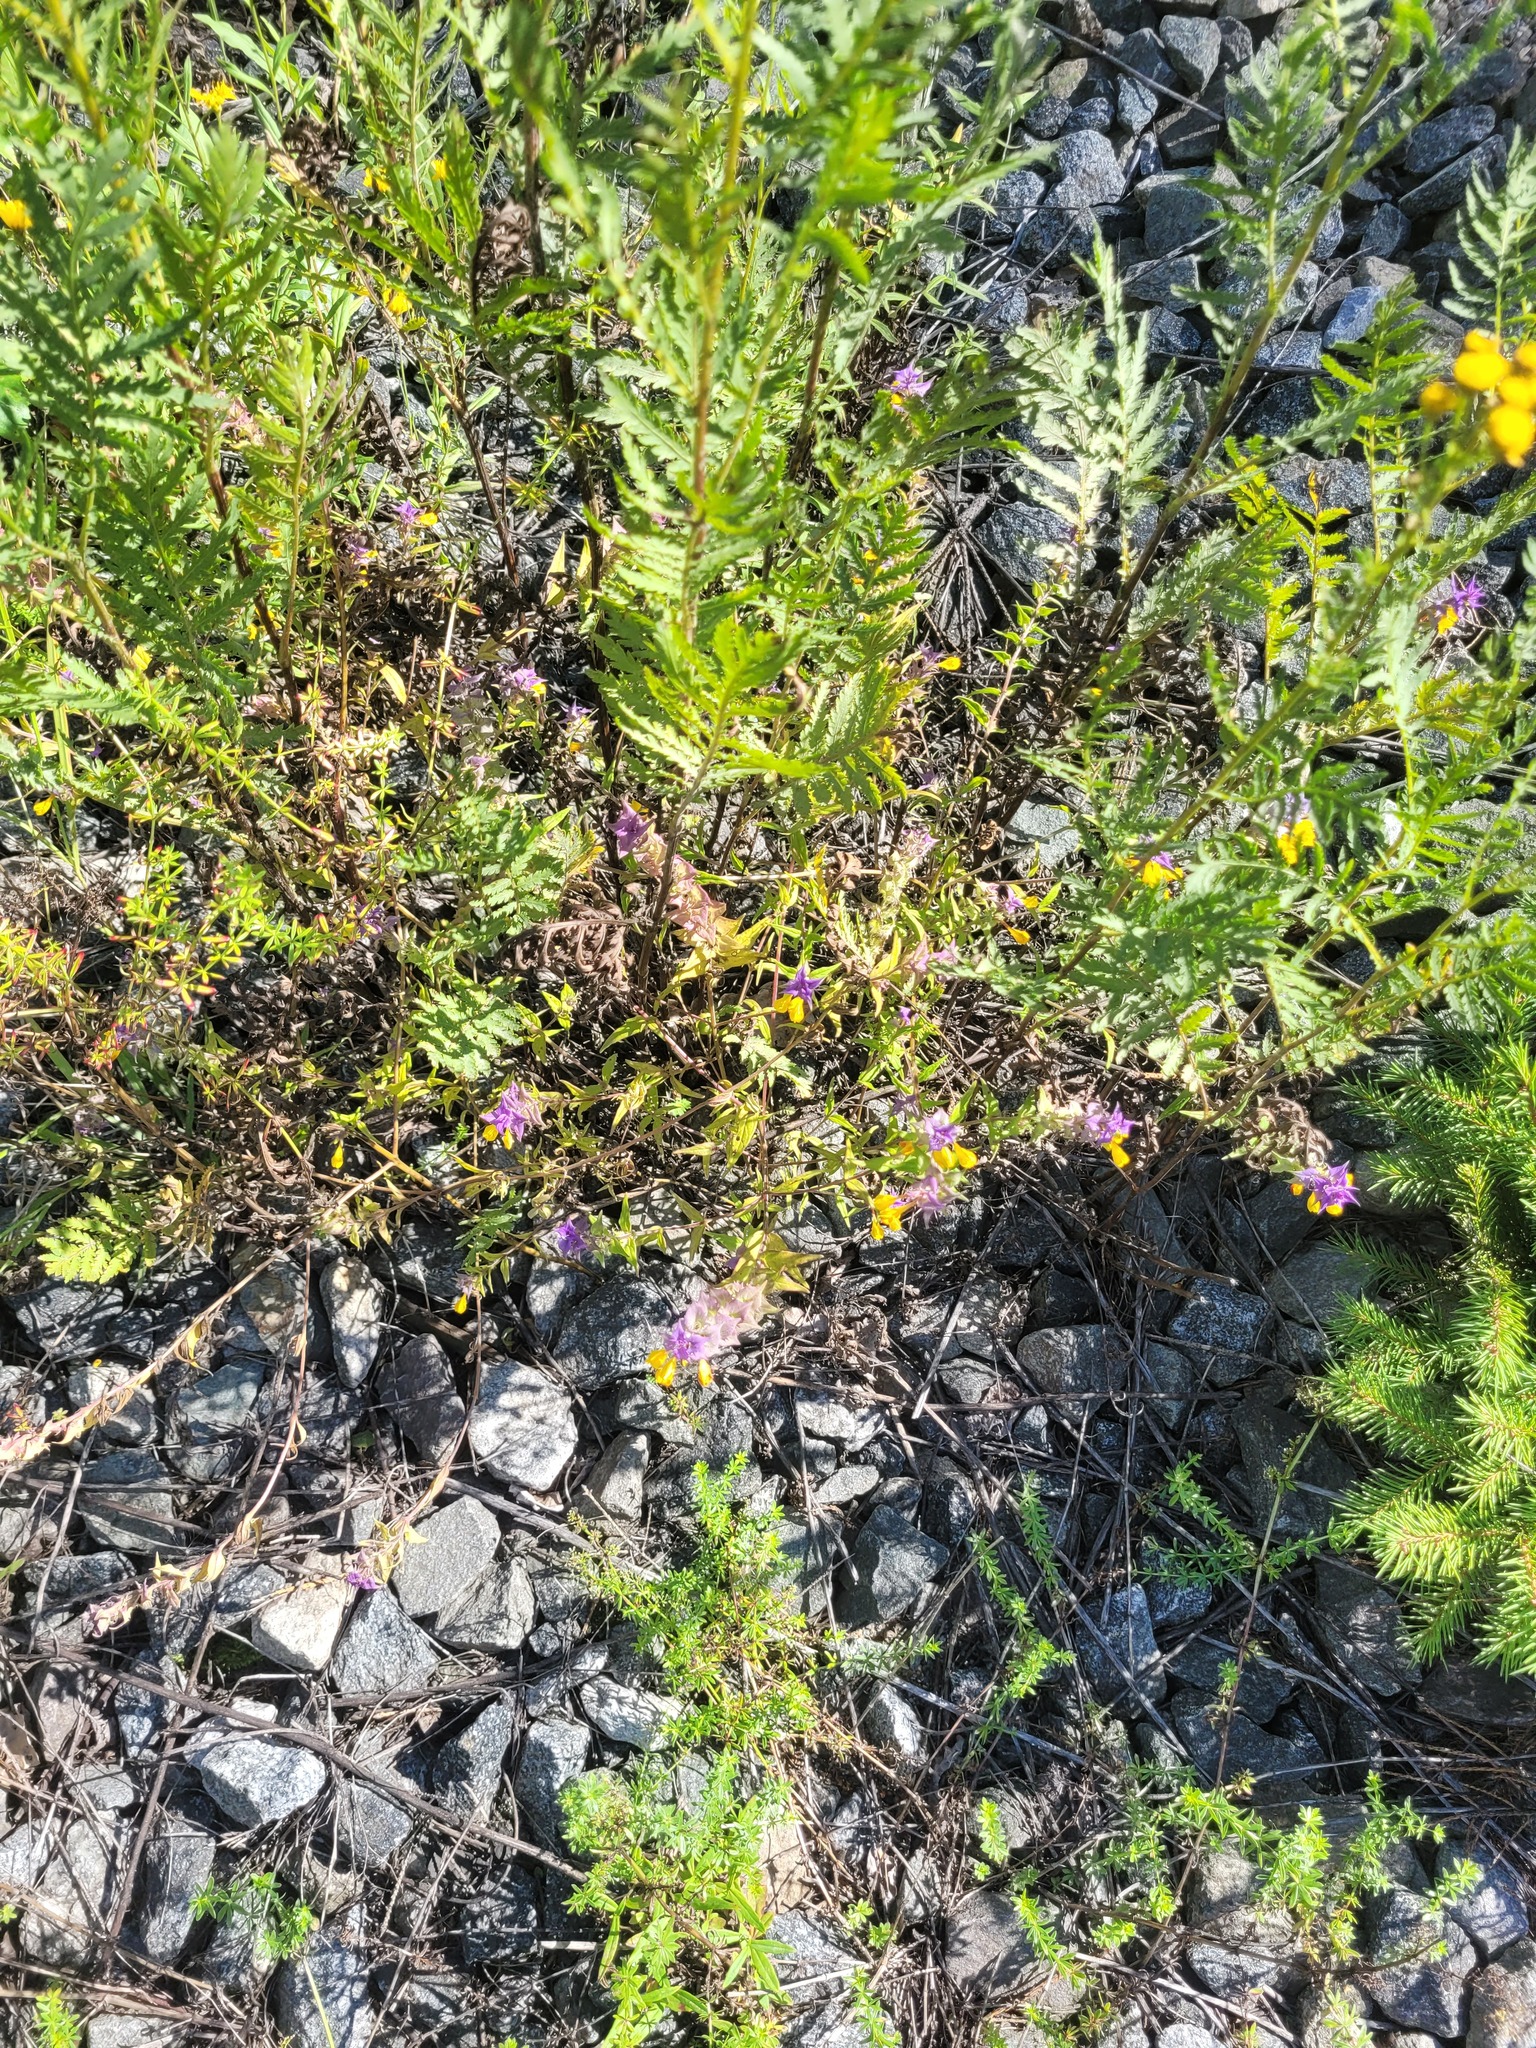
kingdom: Plantae
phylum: Tracheophyta
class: Magnoliopsida
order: Lamiales
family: Orobanchaceae
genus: Melampyrum
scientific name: Melampyrum nemorosum
